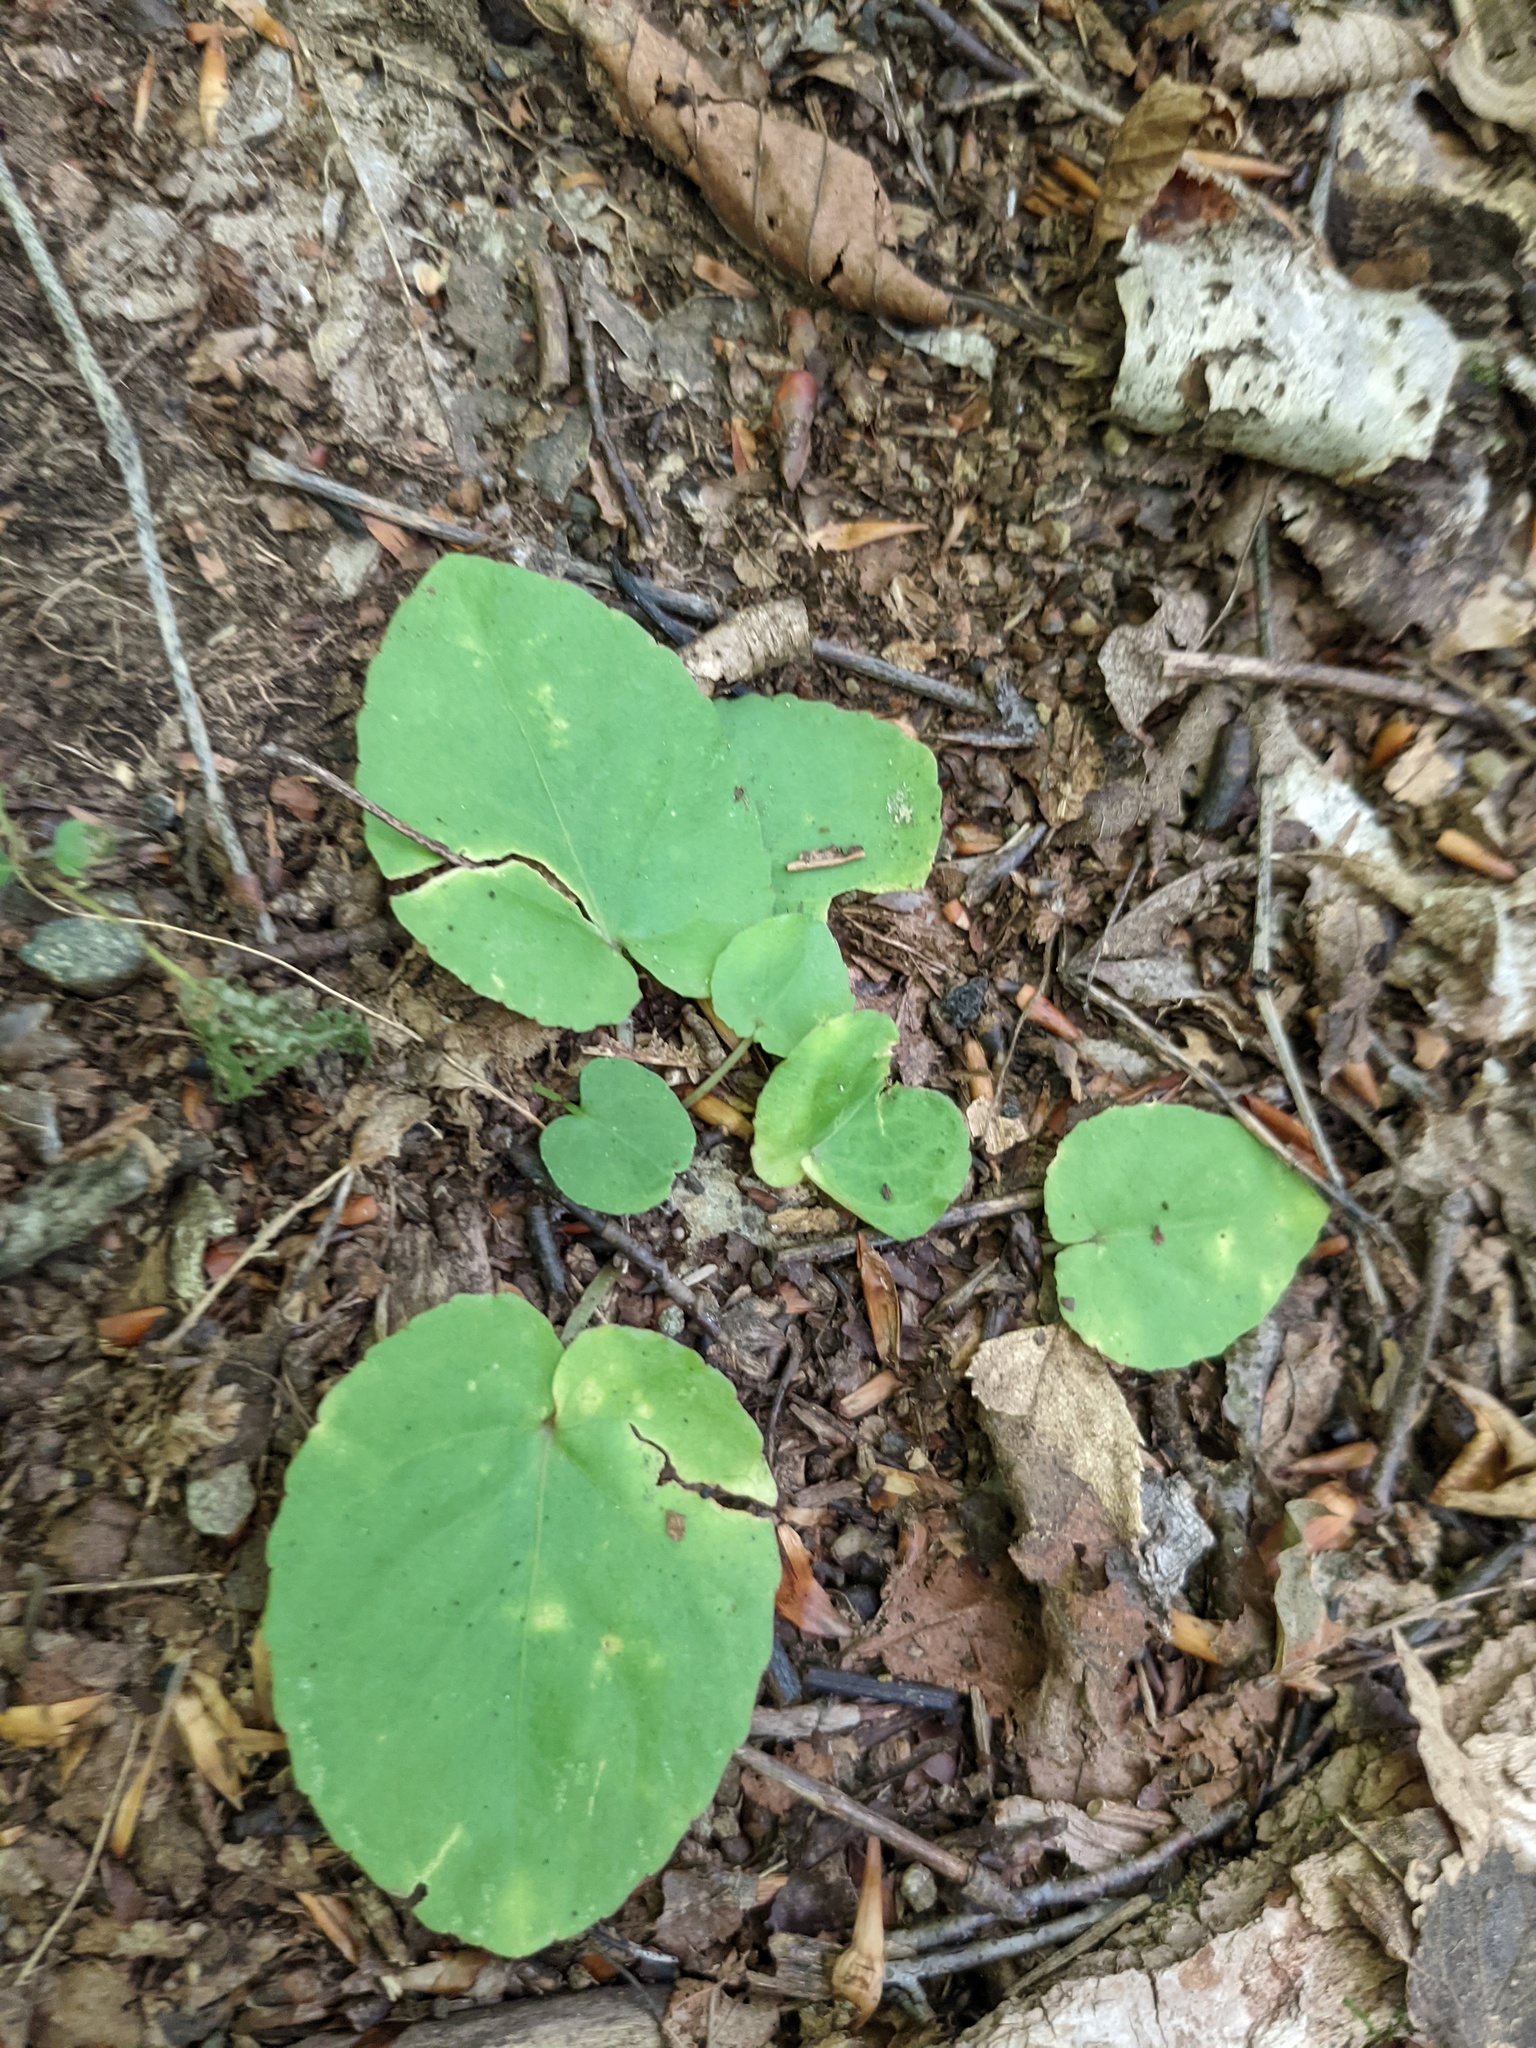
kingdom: Plantae
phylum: Tracheophyta
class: Magnoliopsida
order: Malpighiales
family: Violaceae
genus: Viola
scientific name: Viola rotundifolia
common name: Early yellow violet
